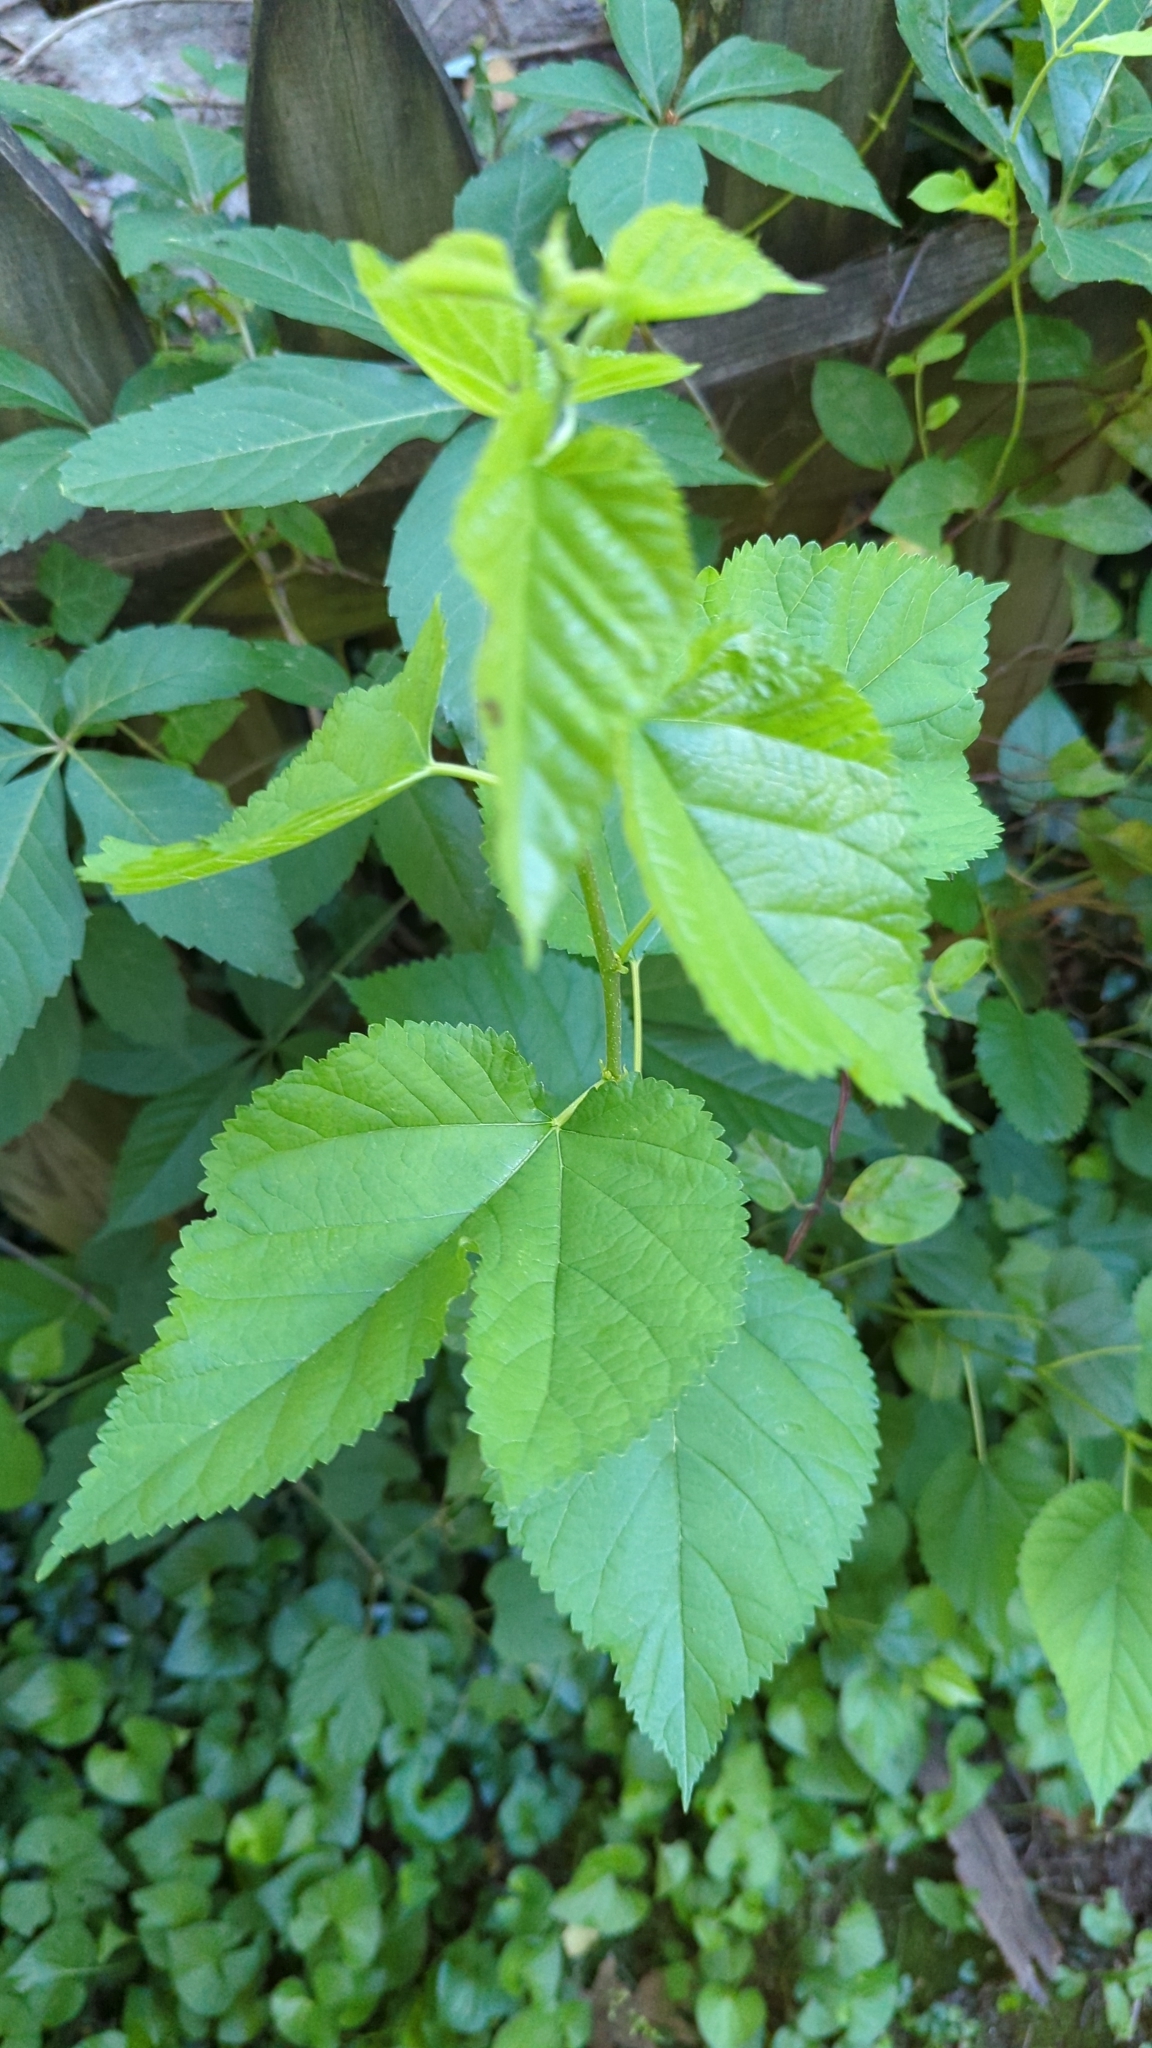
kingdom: Plantae
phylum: Tracheophyta
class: Magnoliopsida
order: Rosales
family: Moraceae
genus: Morus
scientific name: Morus alba
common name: White mulberry
